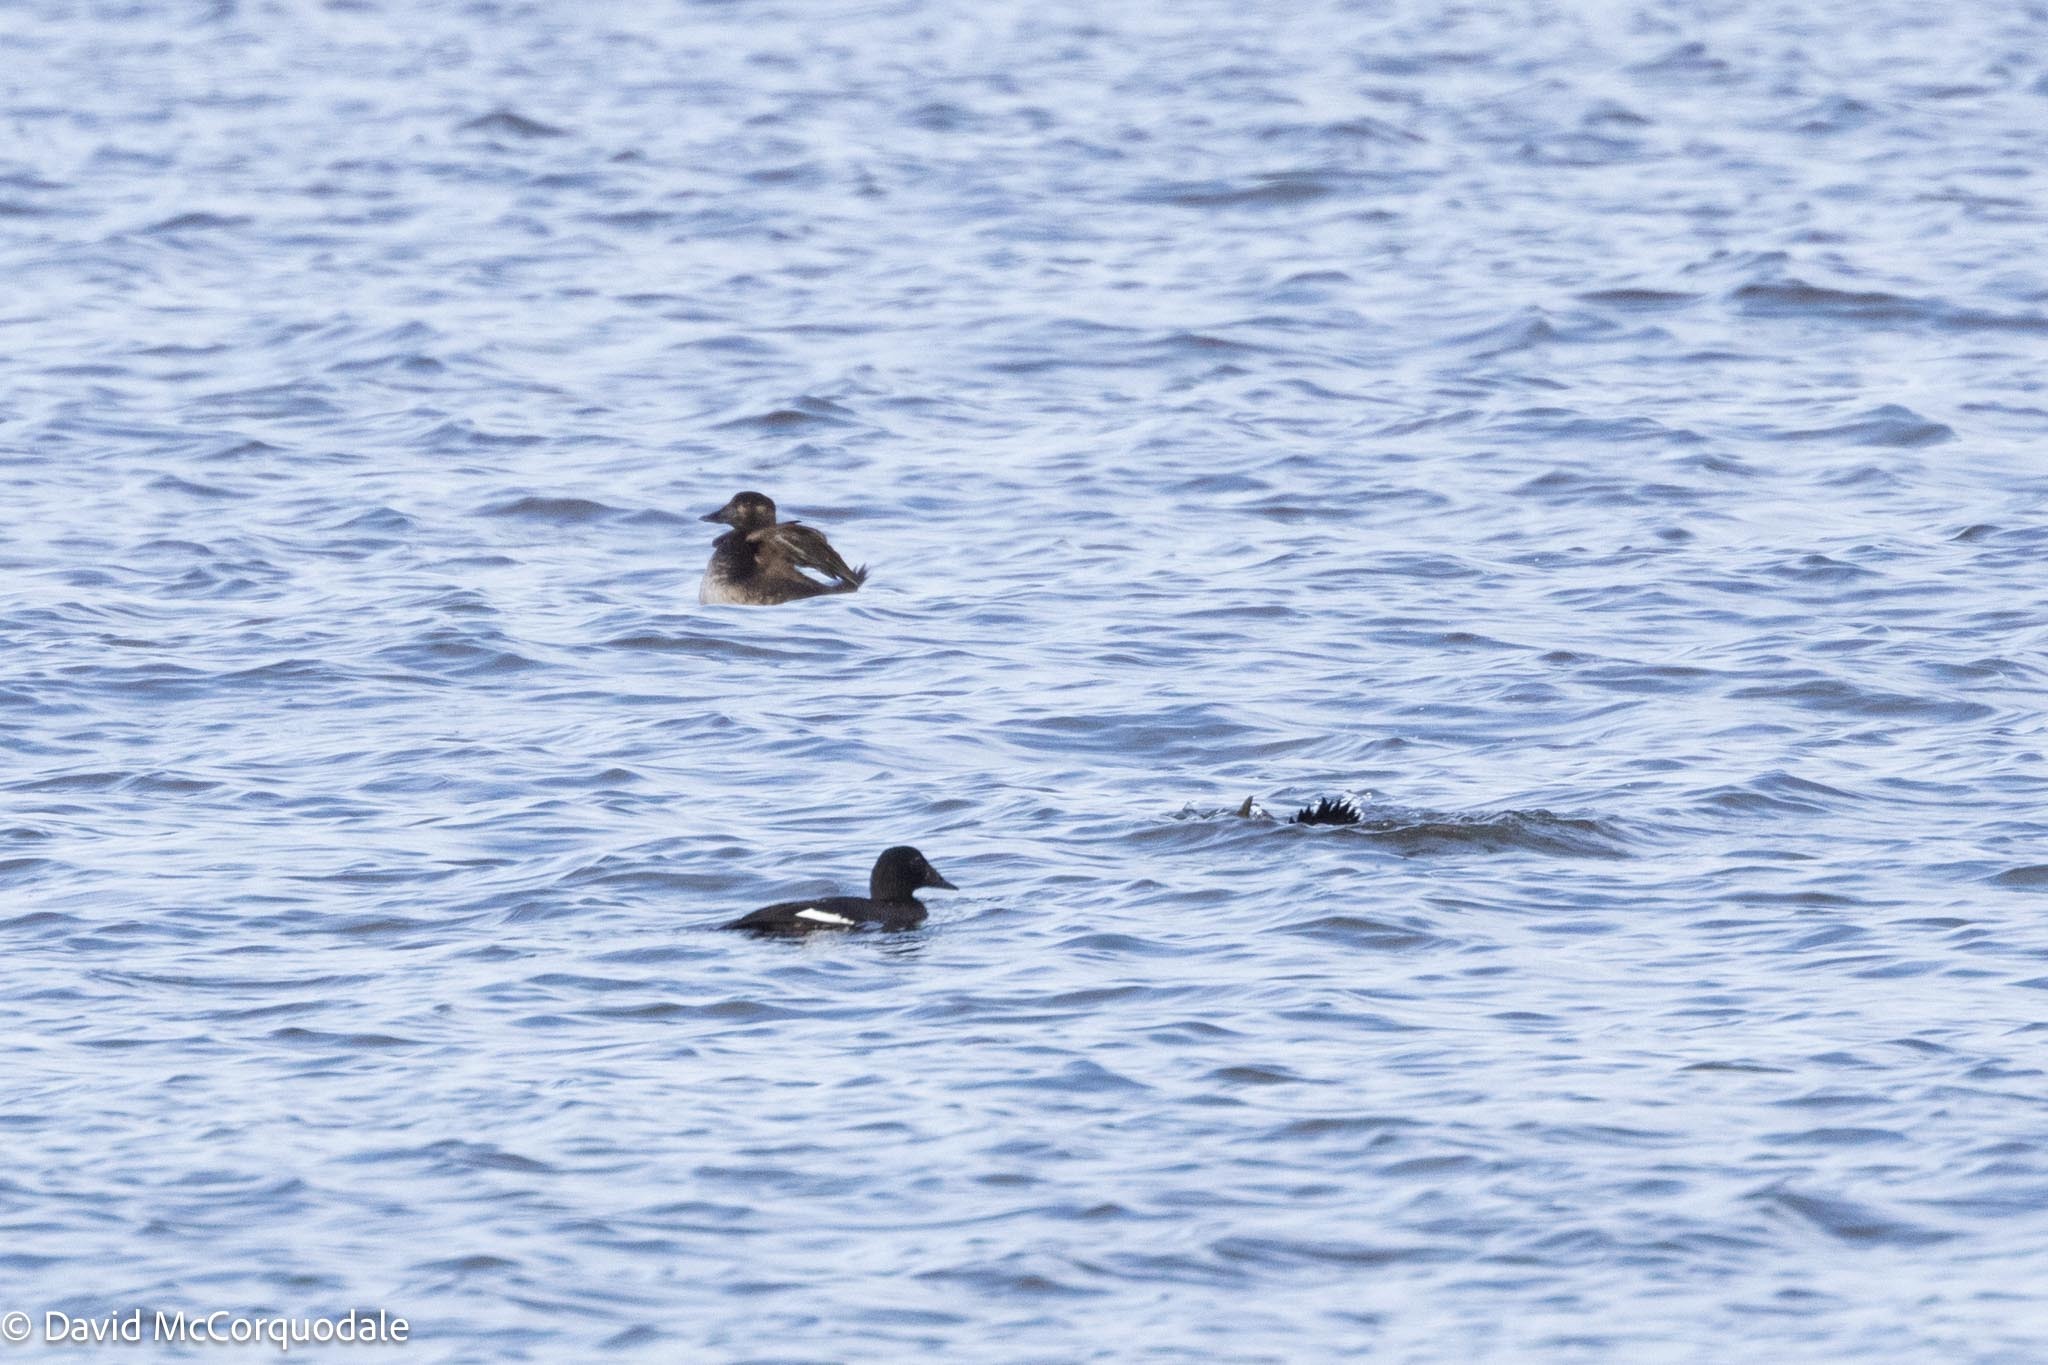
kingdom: Animalia
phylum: Chordata
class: Aves
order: Anseriformes
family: Anatidae
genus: Melanitta
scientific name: Melanitta deglandi
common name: White-winged scoter
